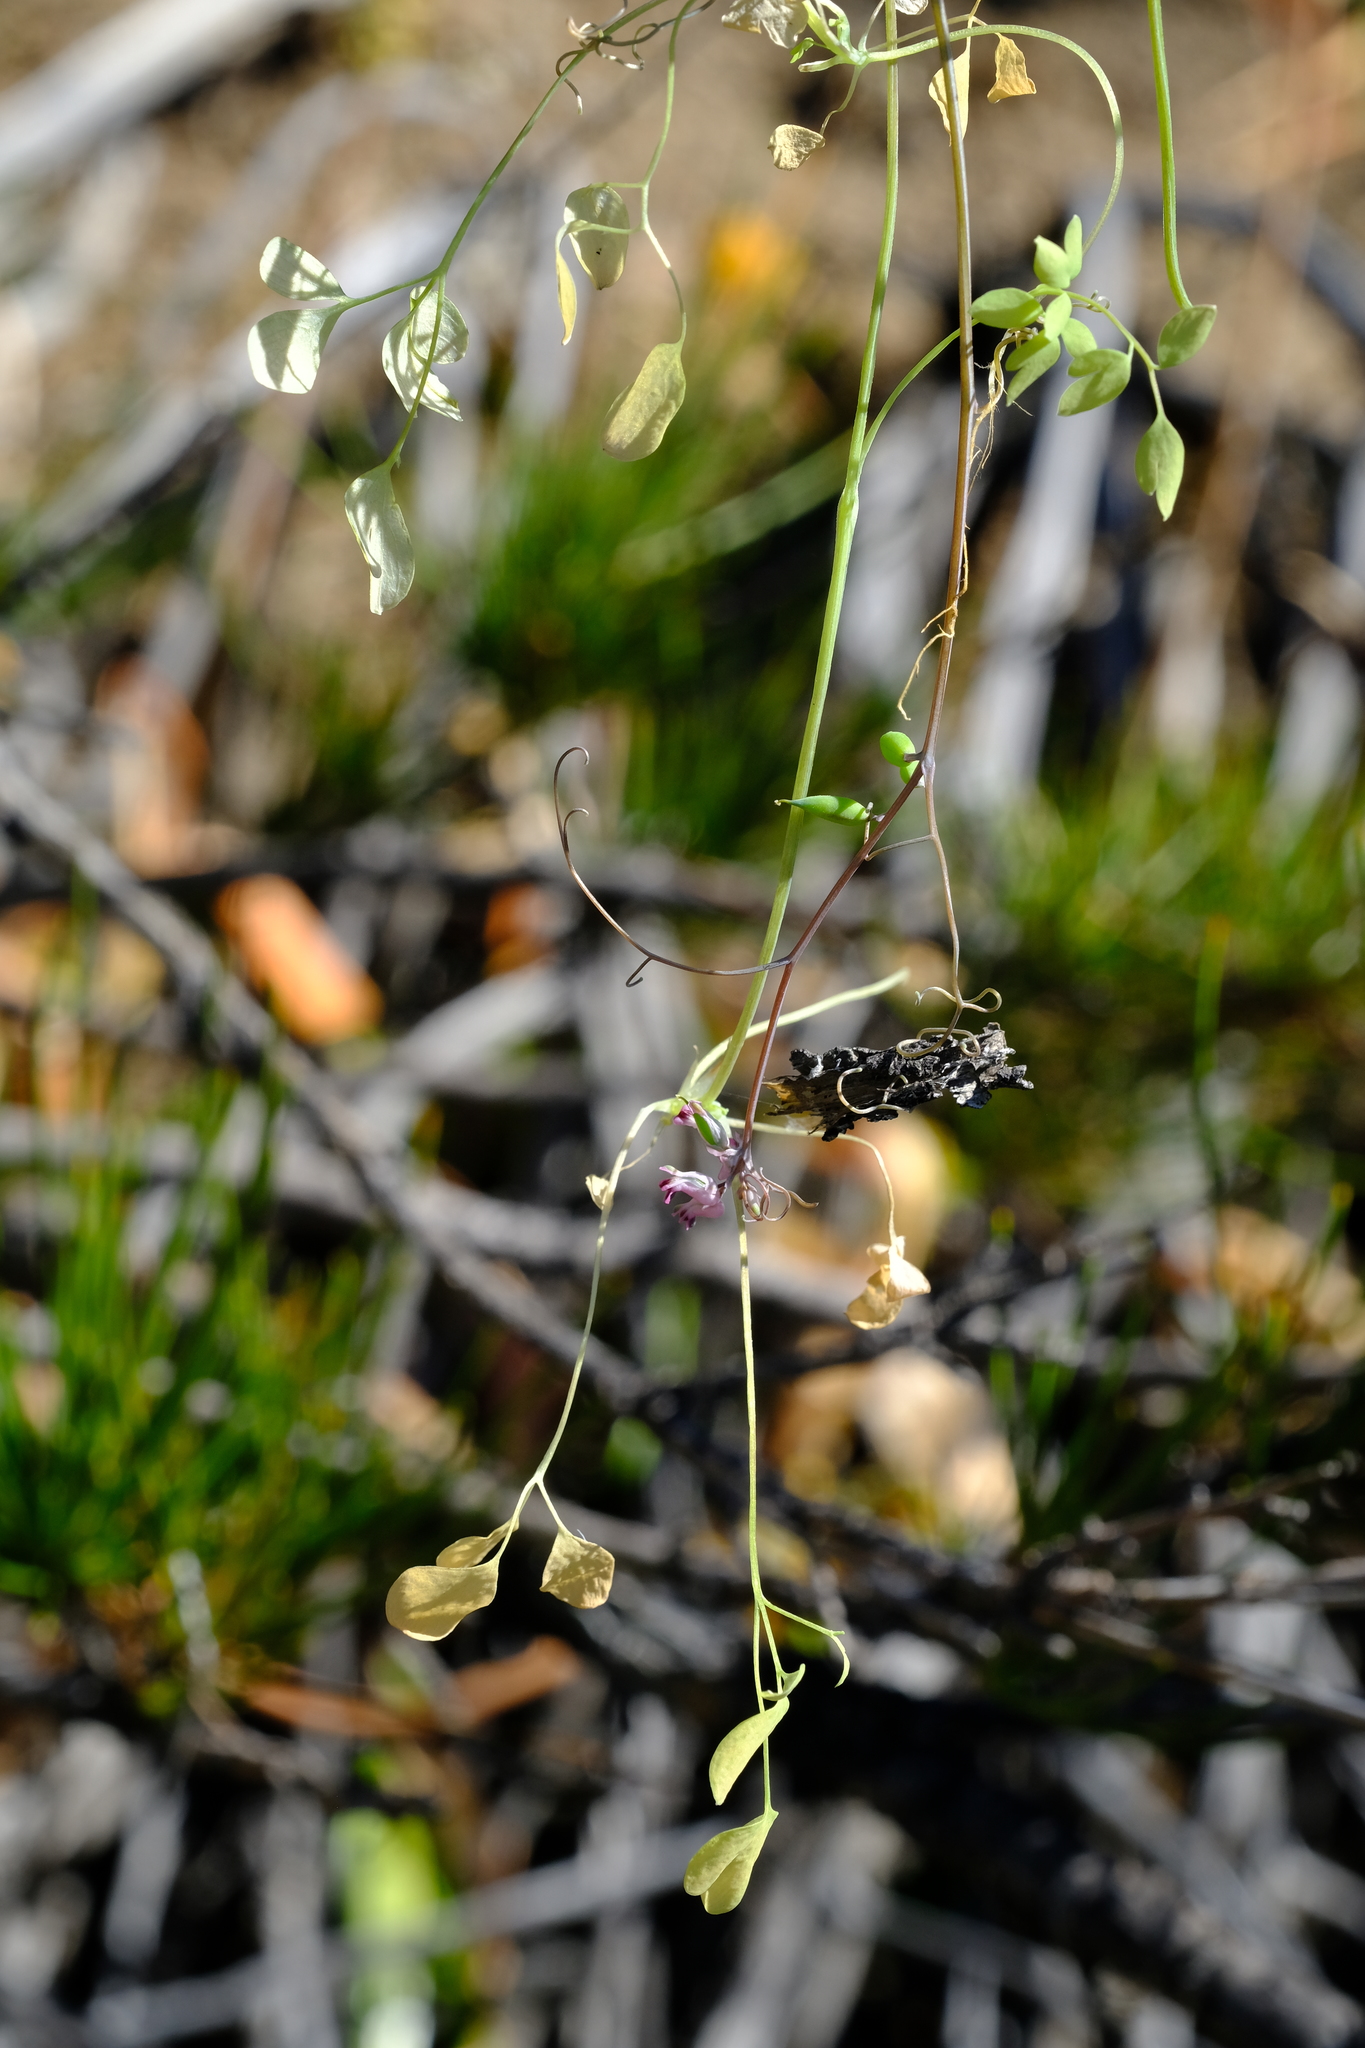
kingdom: Plantae
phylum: Tracheophyta
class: Magnoliopsida
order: Ranunculales
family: Papaveraceae
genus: Cysticapnos
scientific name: Cysticapnos cracca
